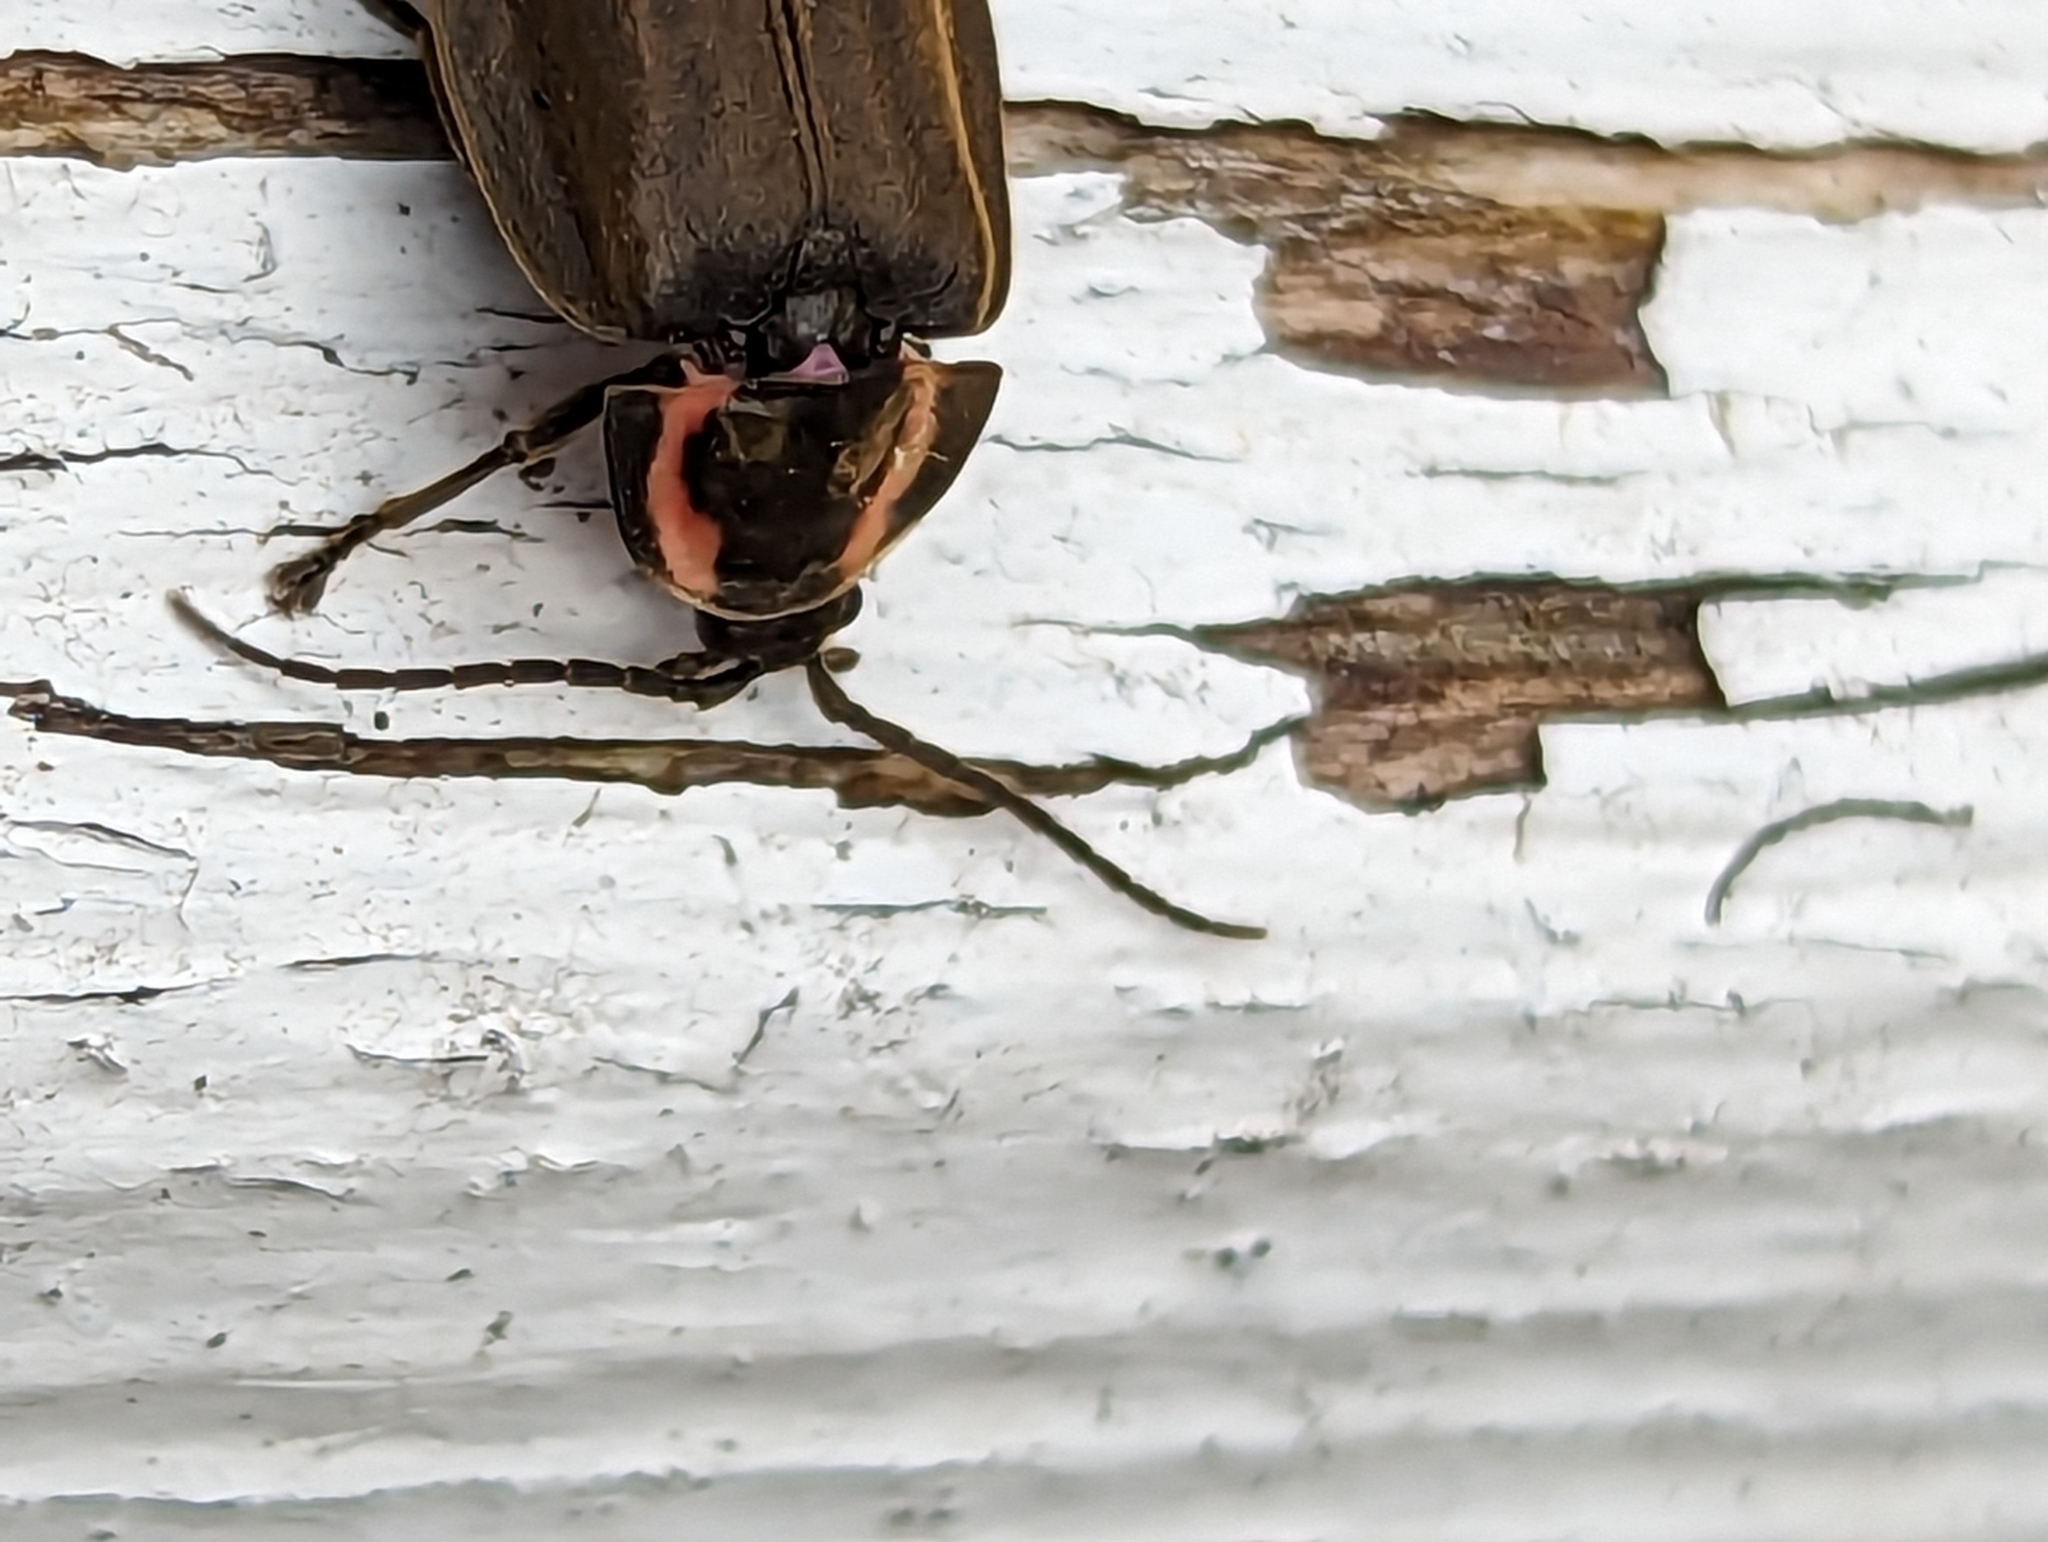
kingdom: Animalia
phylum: Arthropoda
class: Insecta
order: Coleoptera
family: Lampyridae
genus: Photinus
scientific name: Photinus corrusca
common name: Winter firefly
